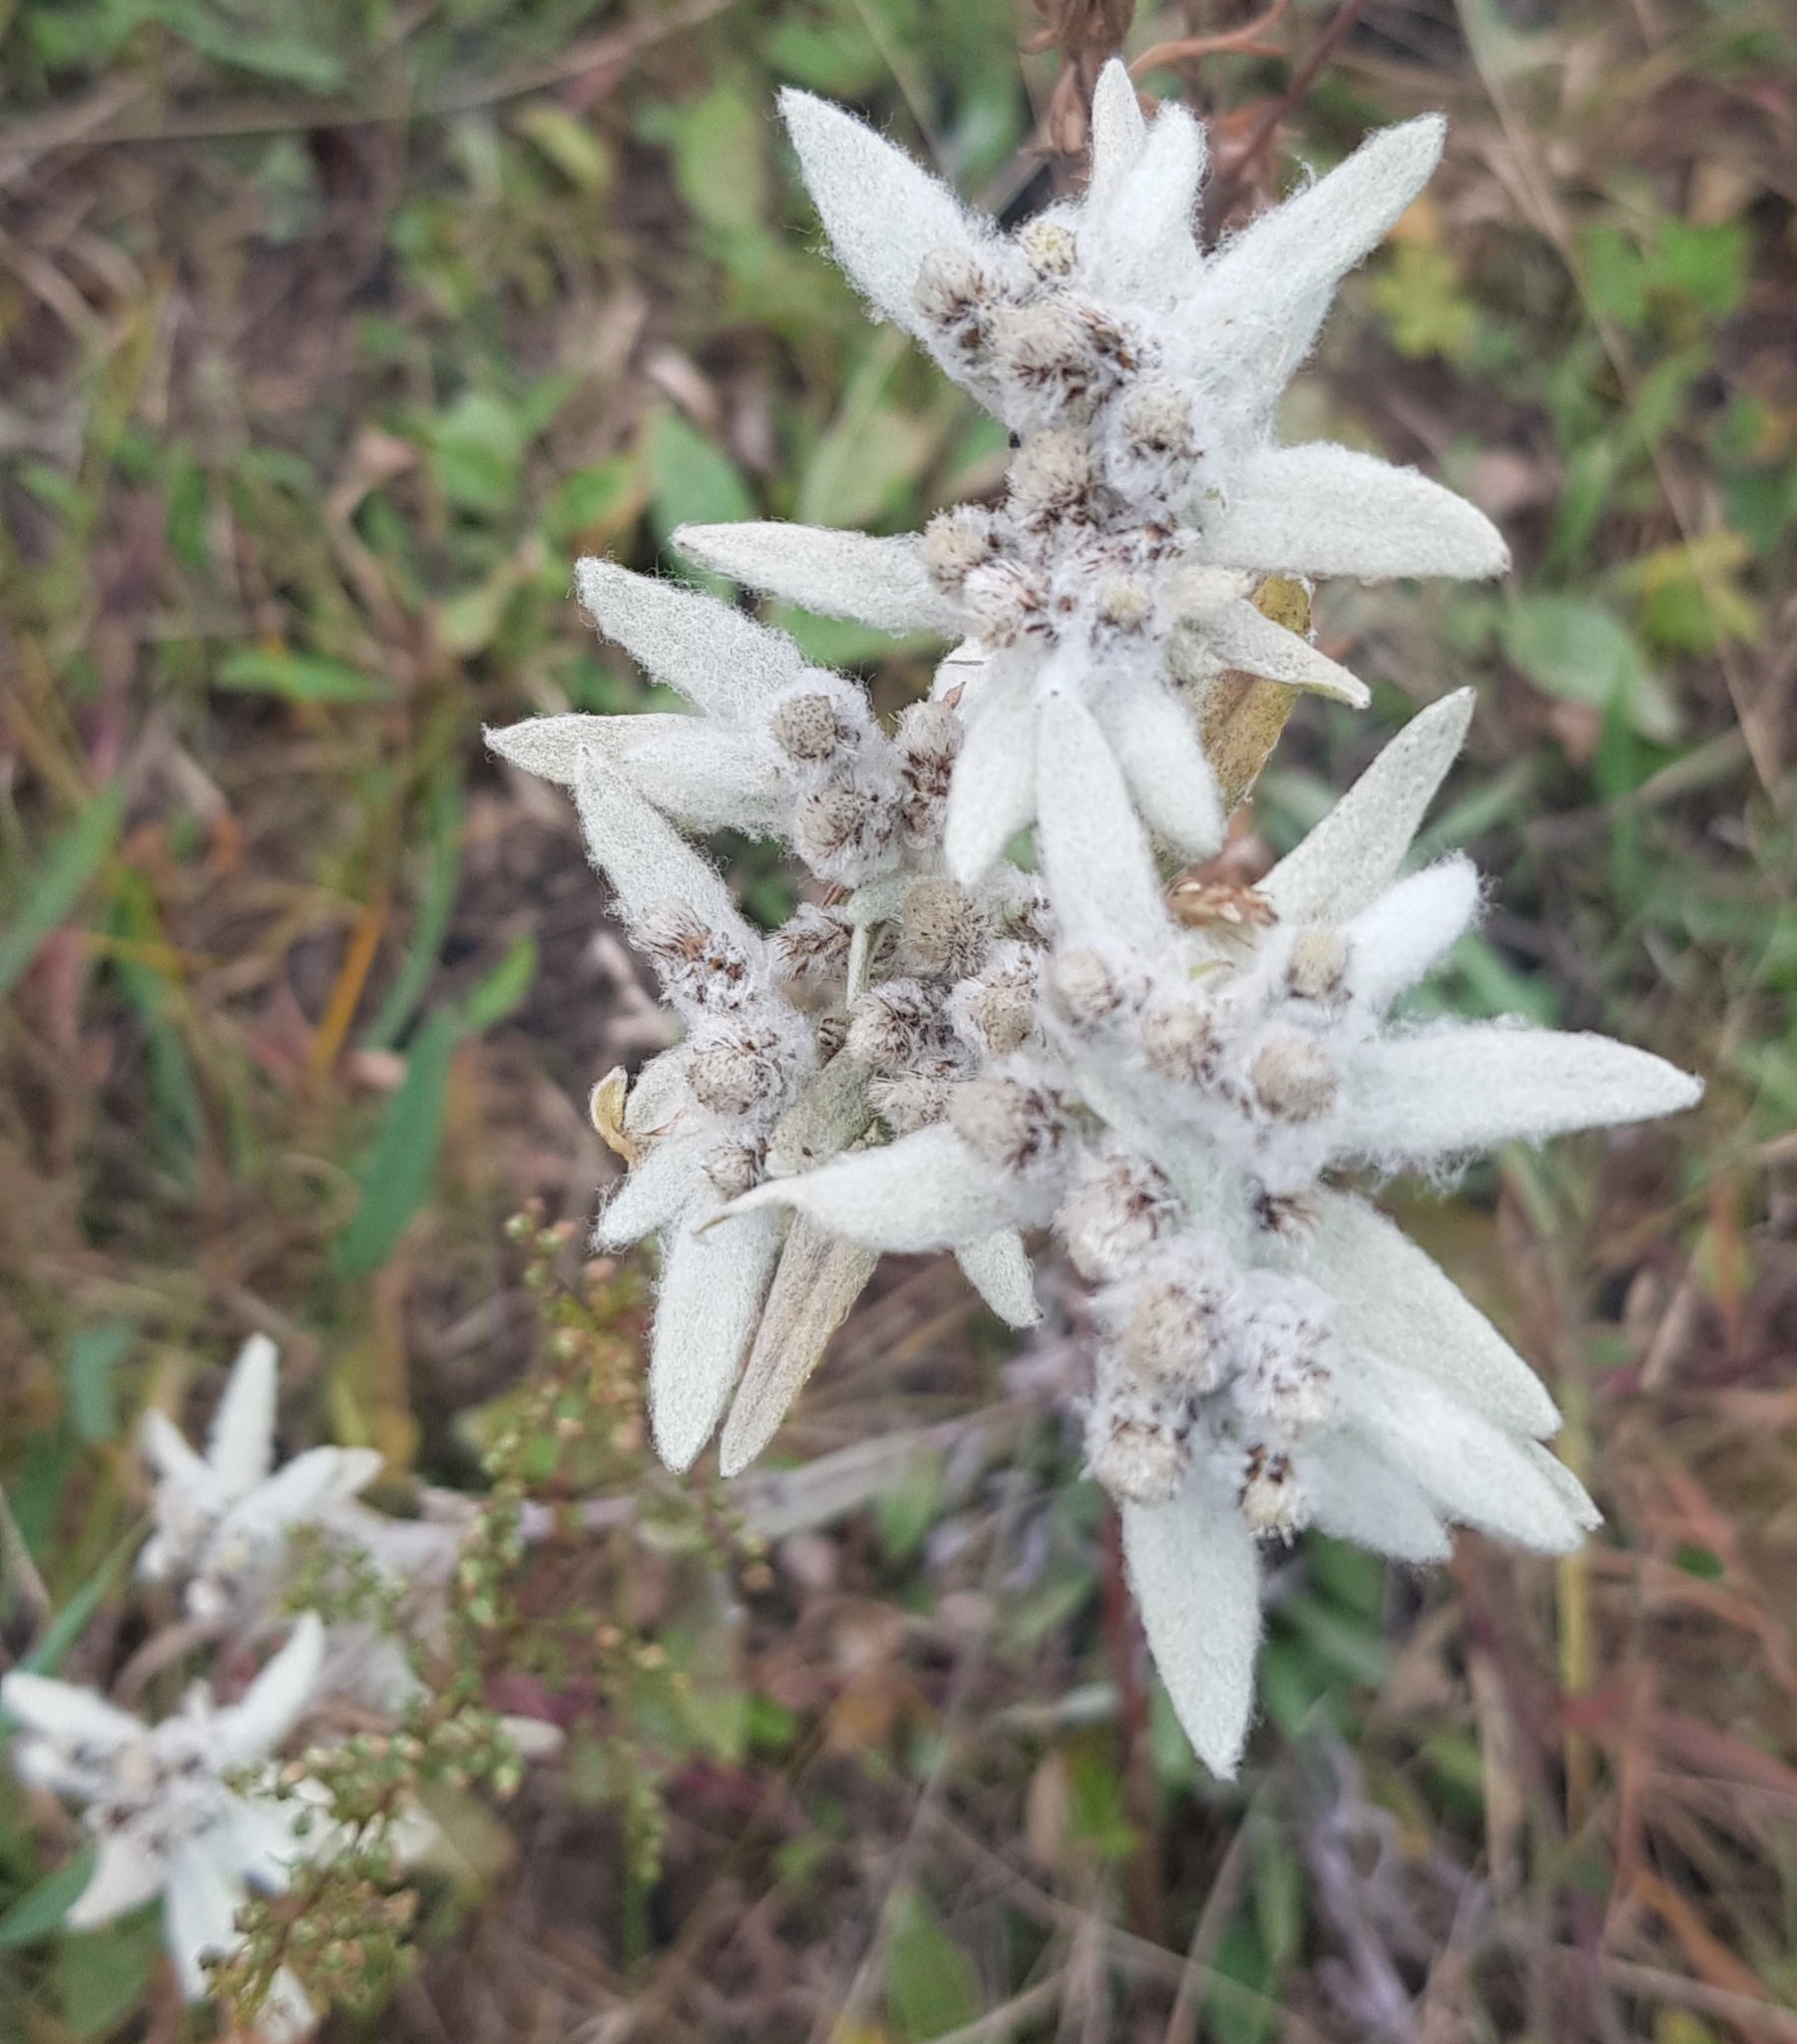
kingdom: Plantae
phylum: Tracheophyta
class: Magnoliopsida
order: Asterales
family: Asteraceae
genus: Leontopodium
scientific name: Leontopodium leontopodinum
